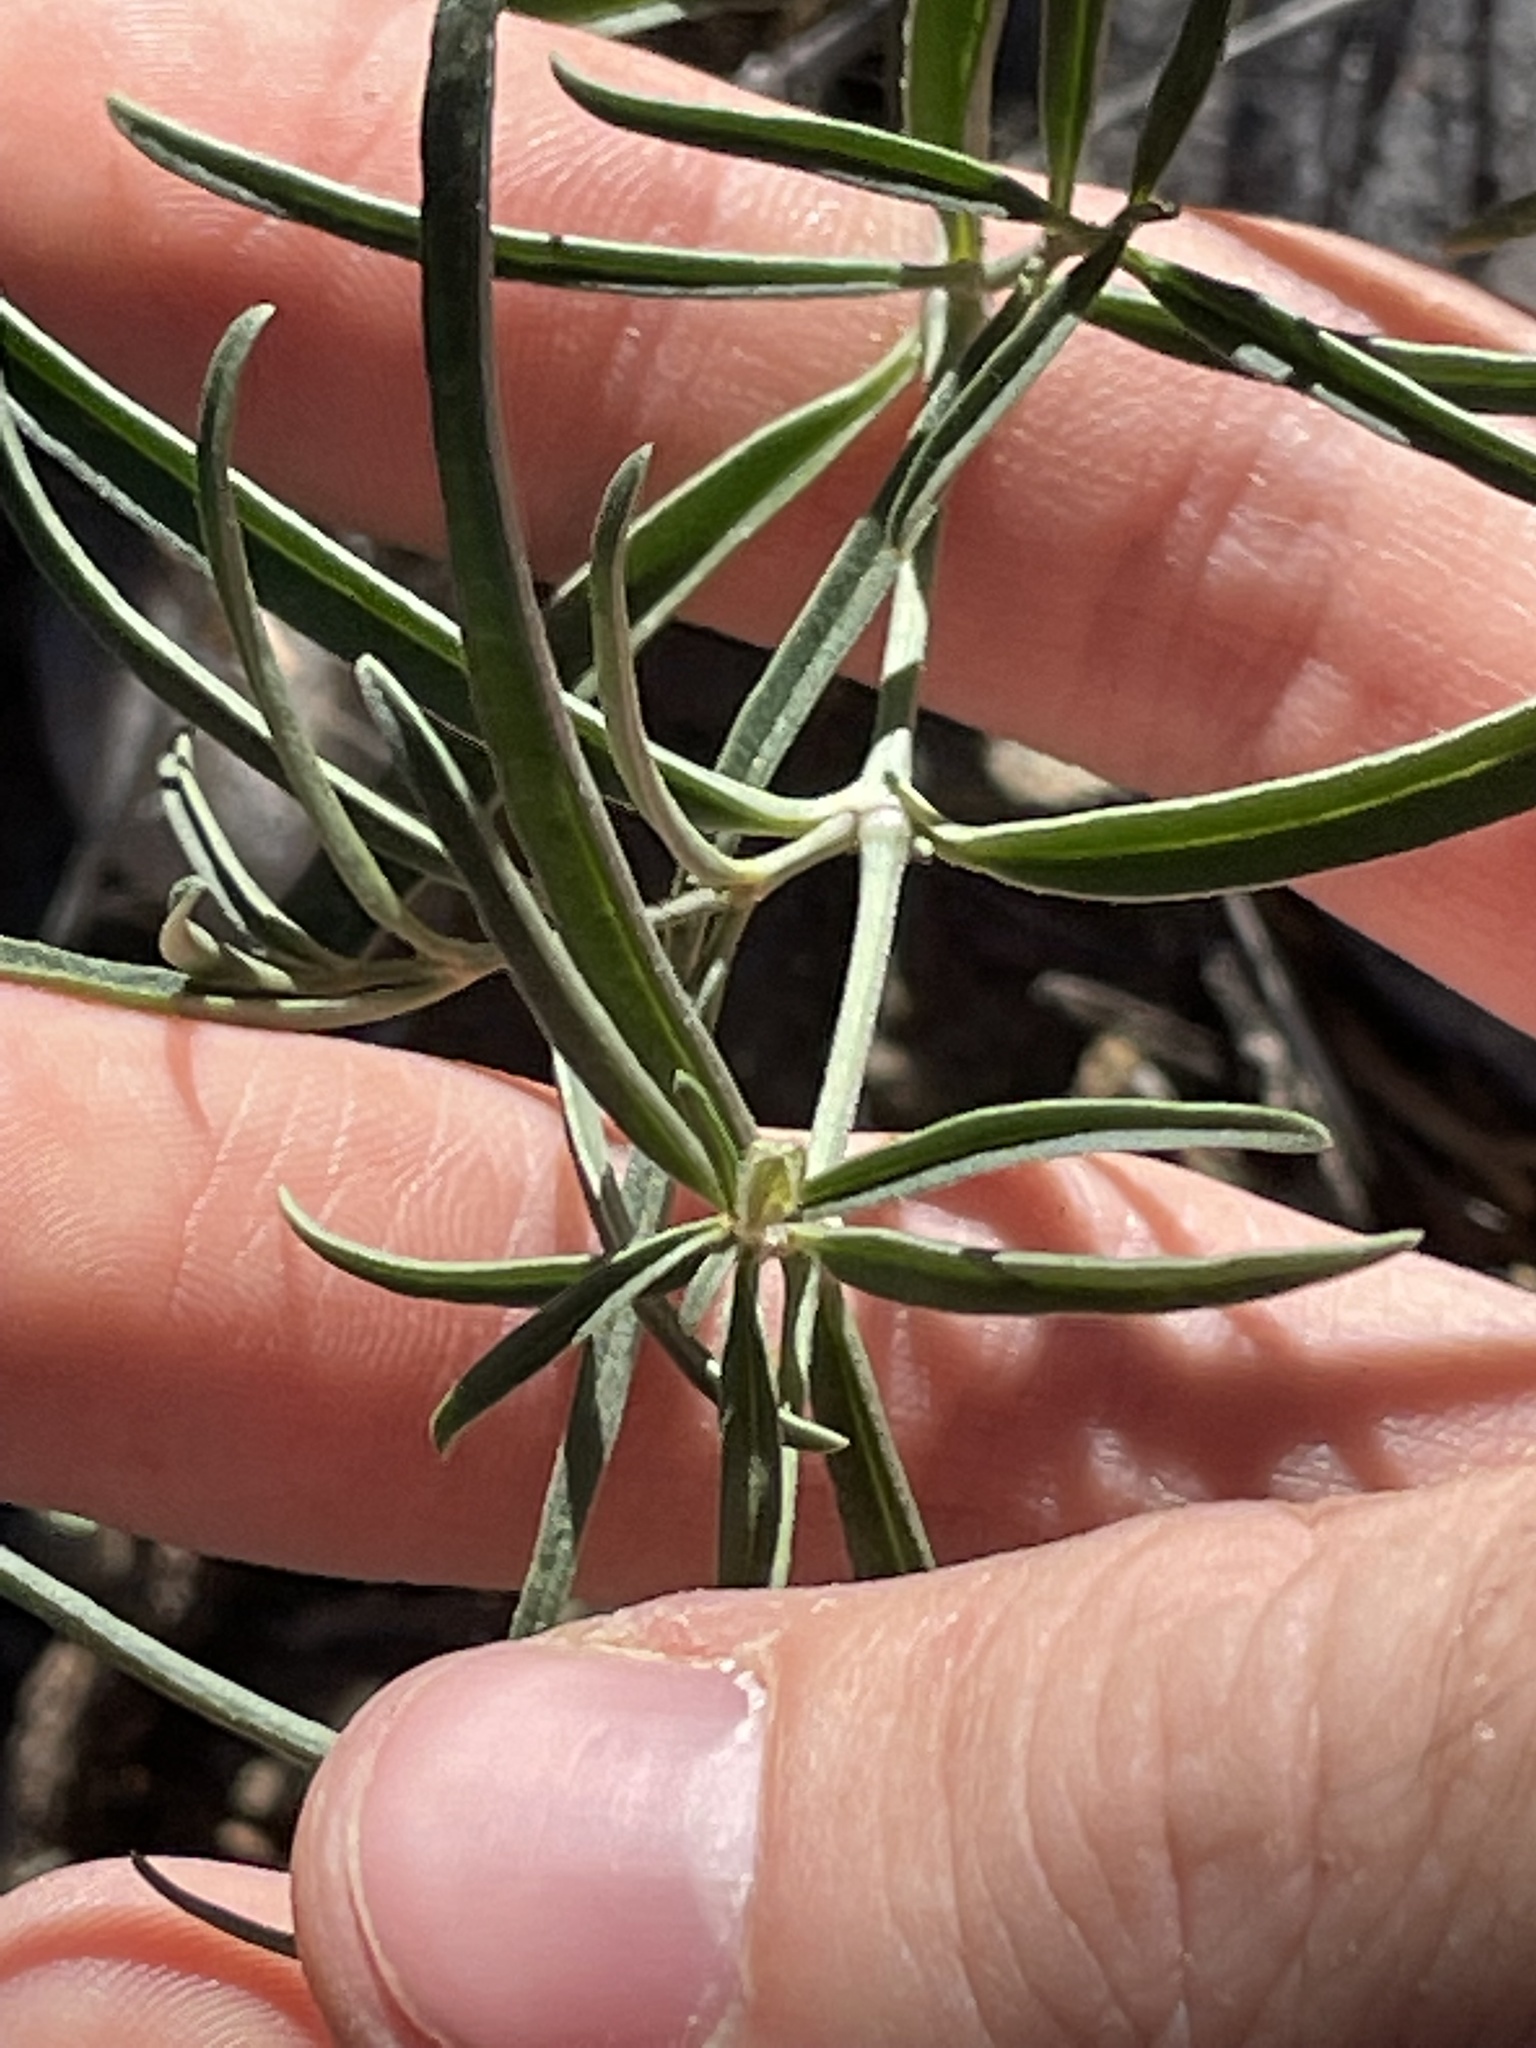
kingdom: Plantae
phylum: Tracheophyta
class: Magnoliopsida
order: Caryophyllales
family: Nyctaginaceae
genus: Mirabilis
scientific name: Mirabilis linearis
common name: Linear-leaved four-o'clock
